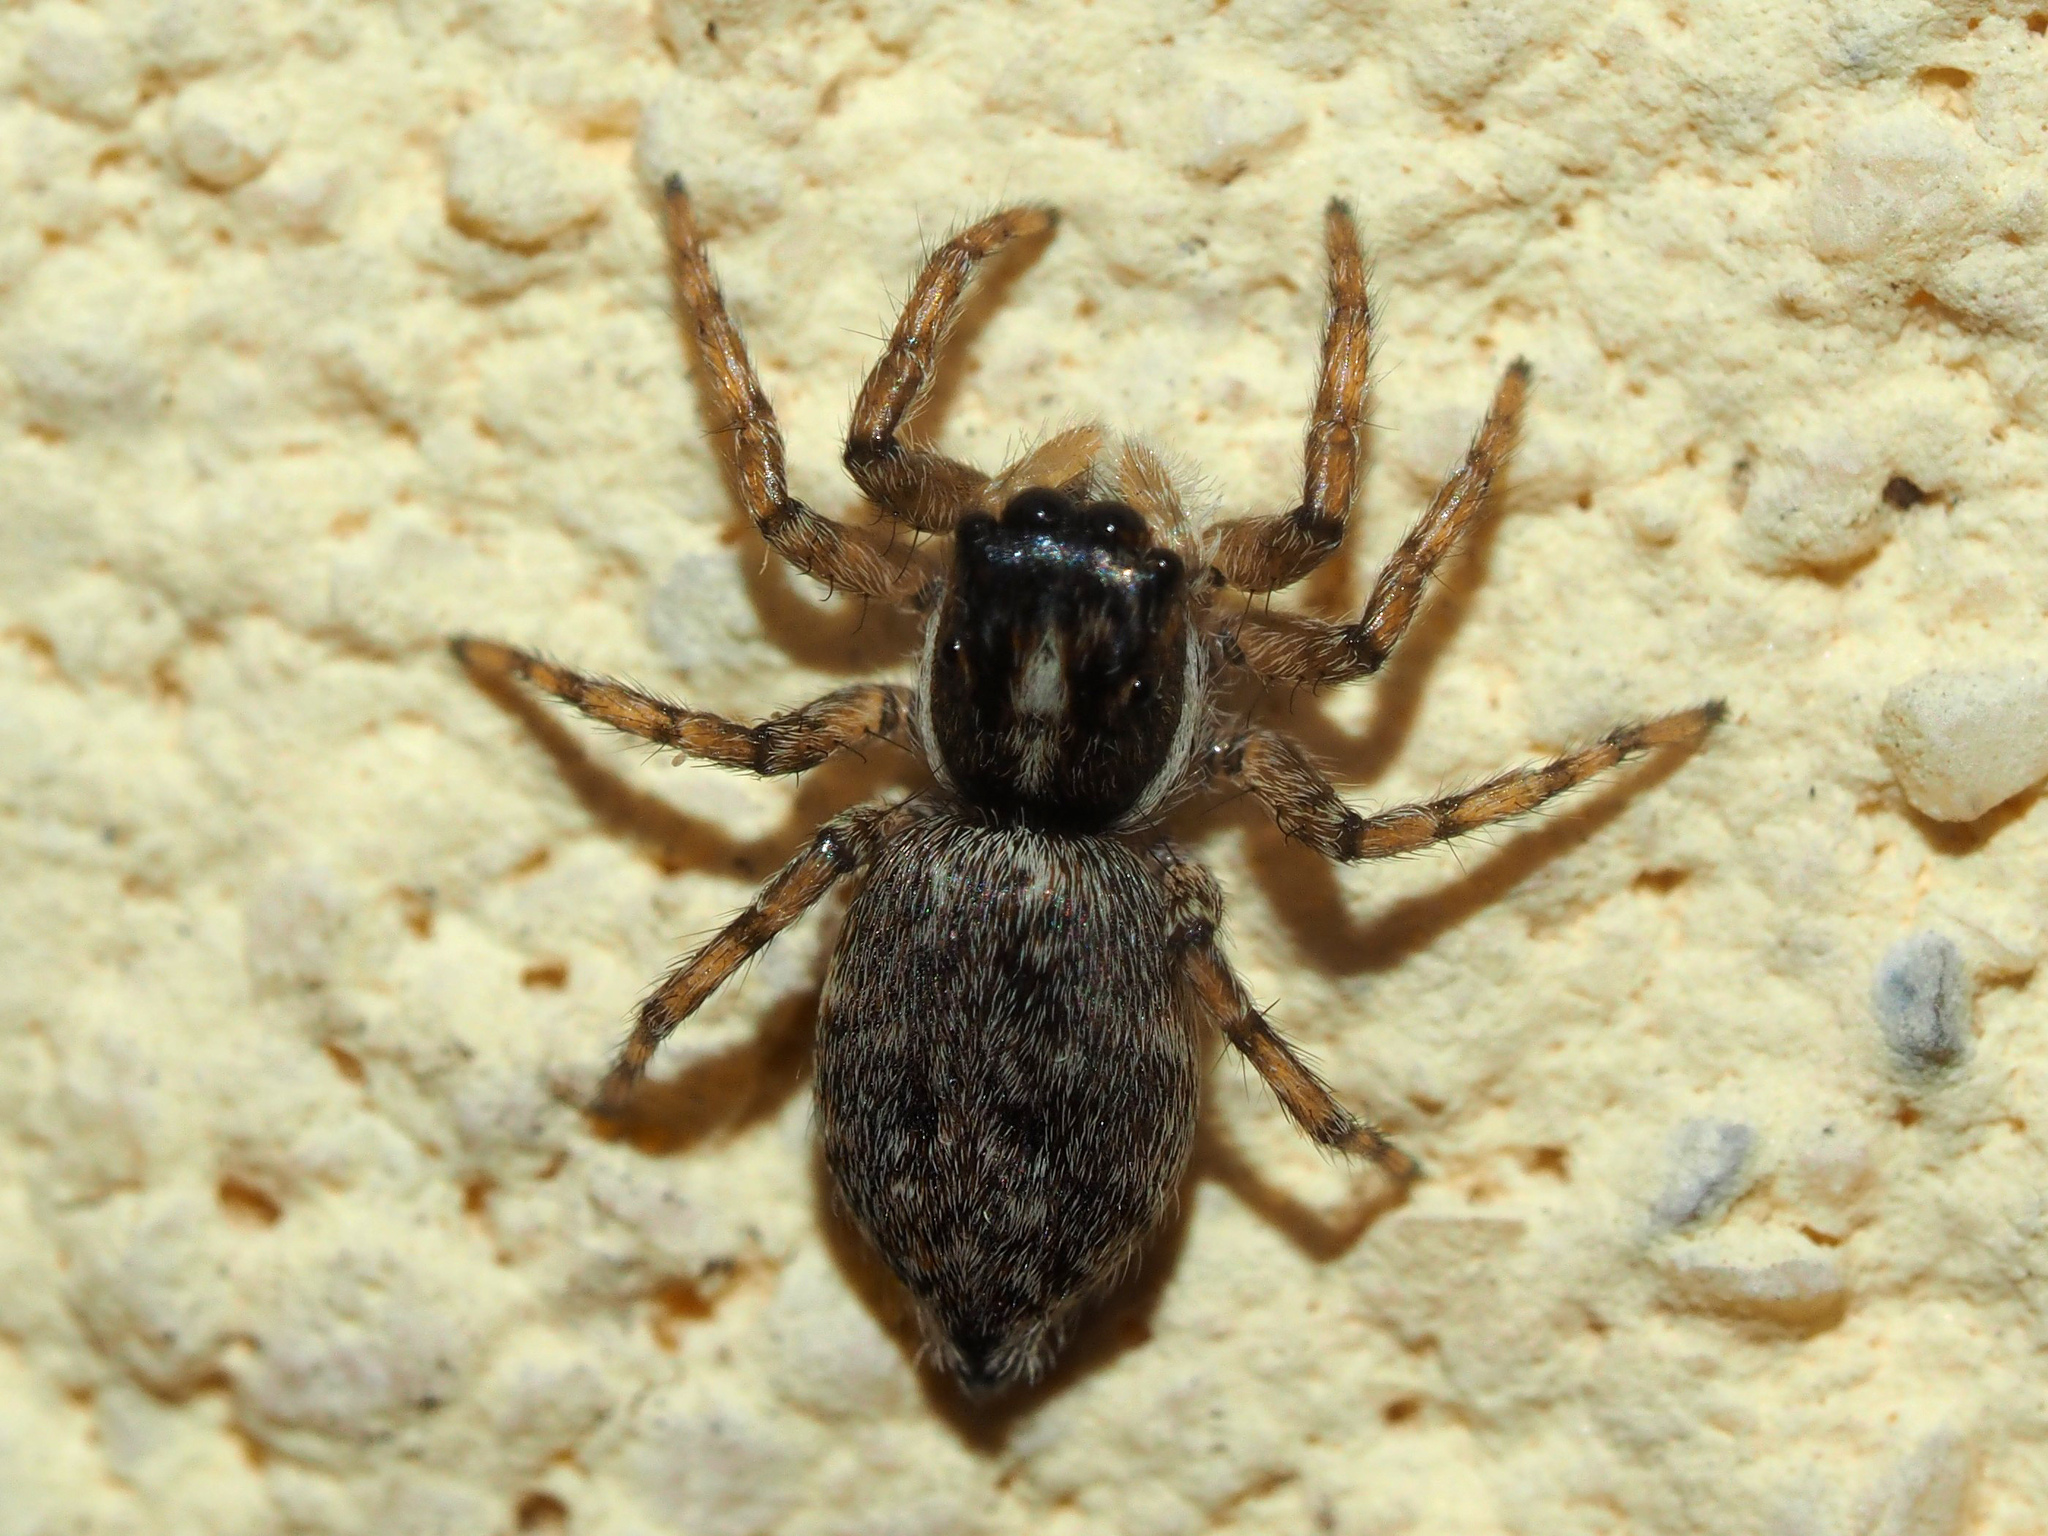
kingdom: Animalia
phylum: Arthropoda
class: Arachnida
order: Araneae
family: Salticidae
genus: Menemerus
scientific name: Menemerus semilimbatus
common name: Jumping spider
